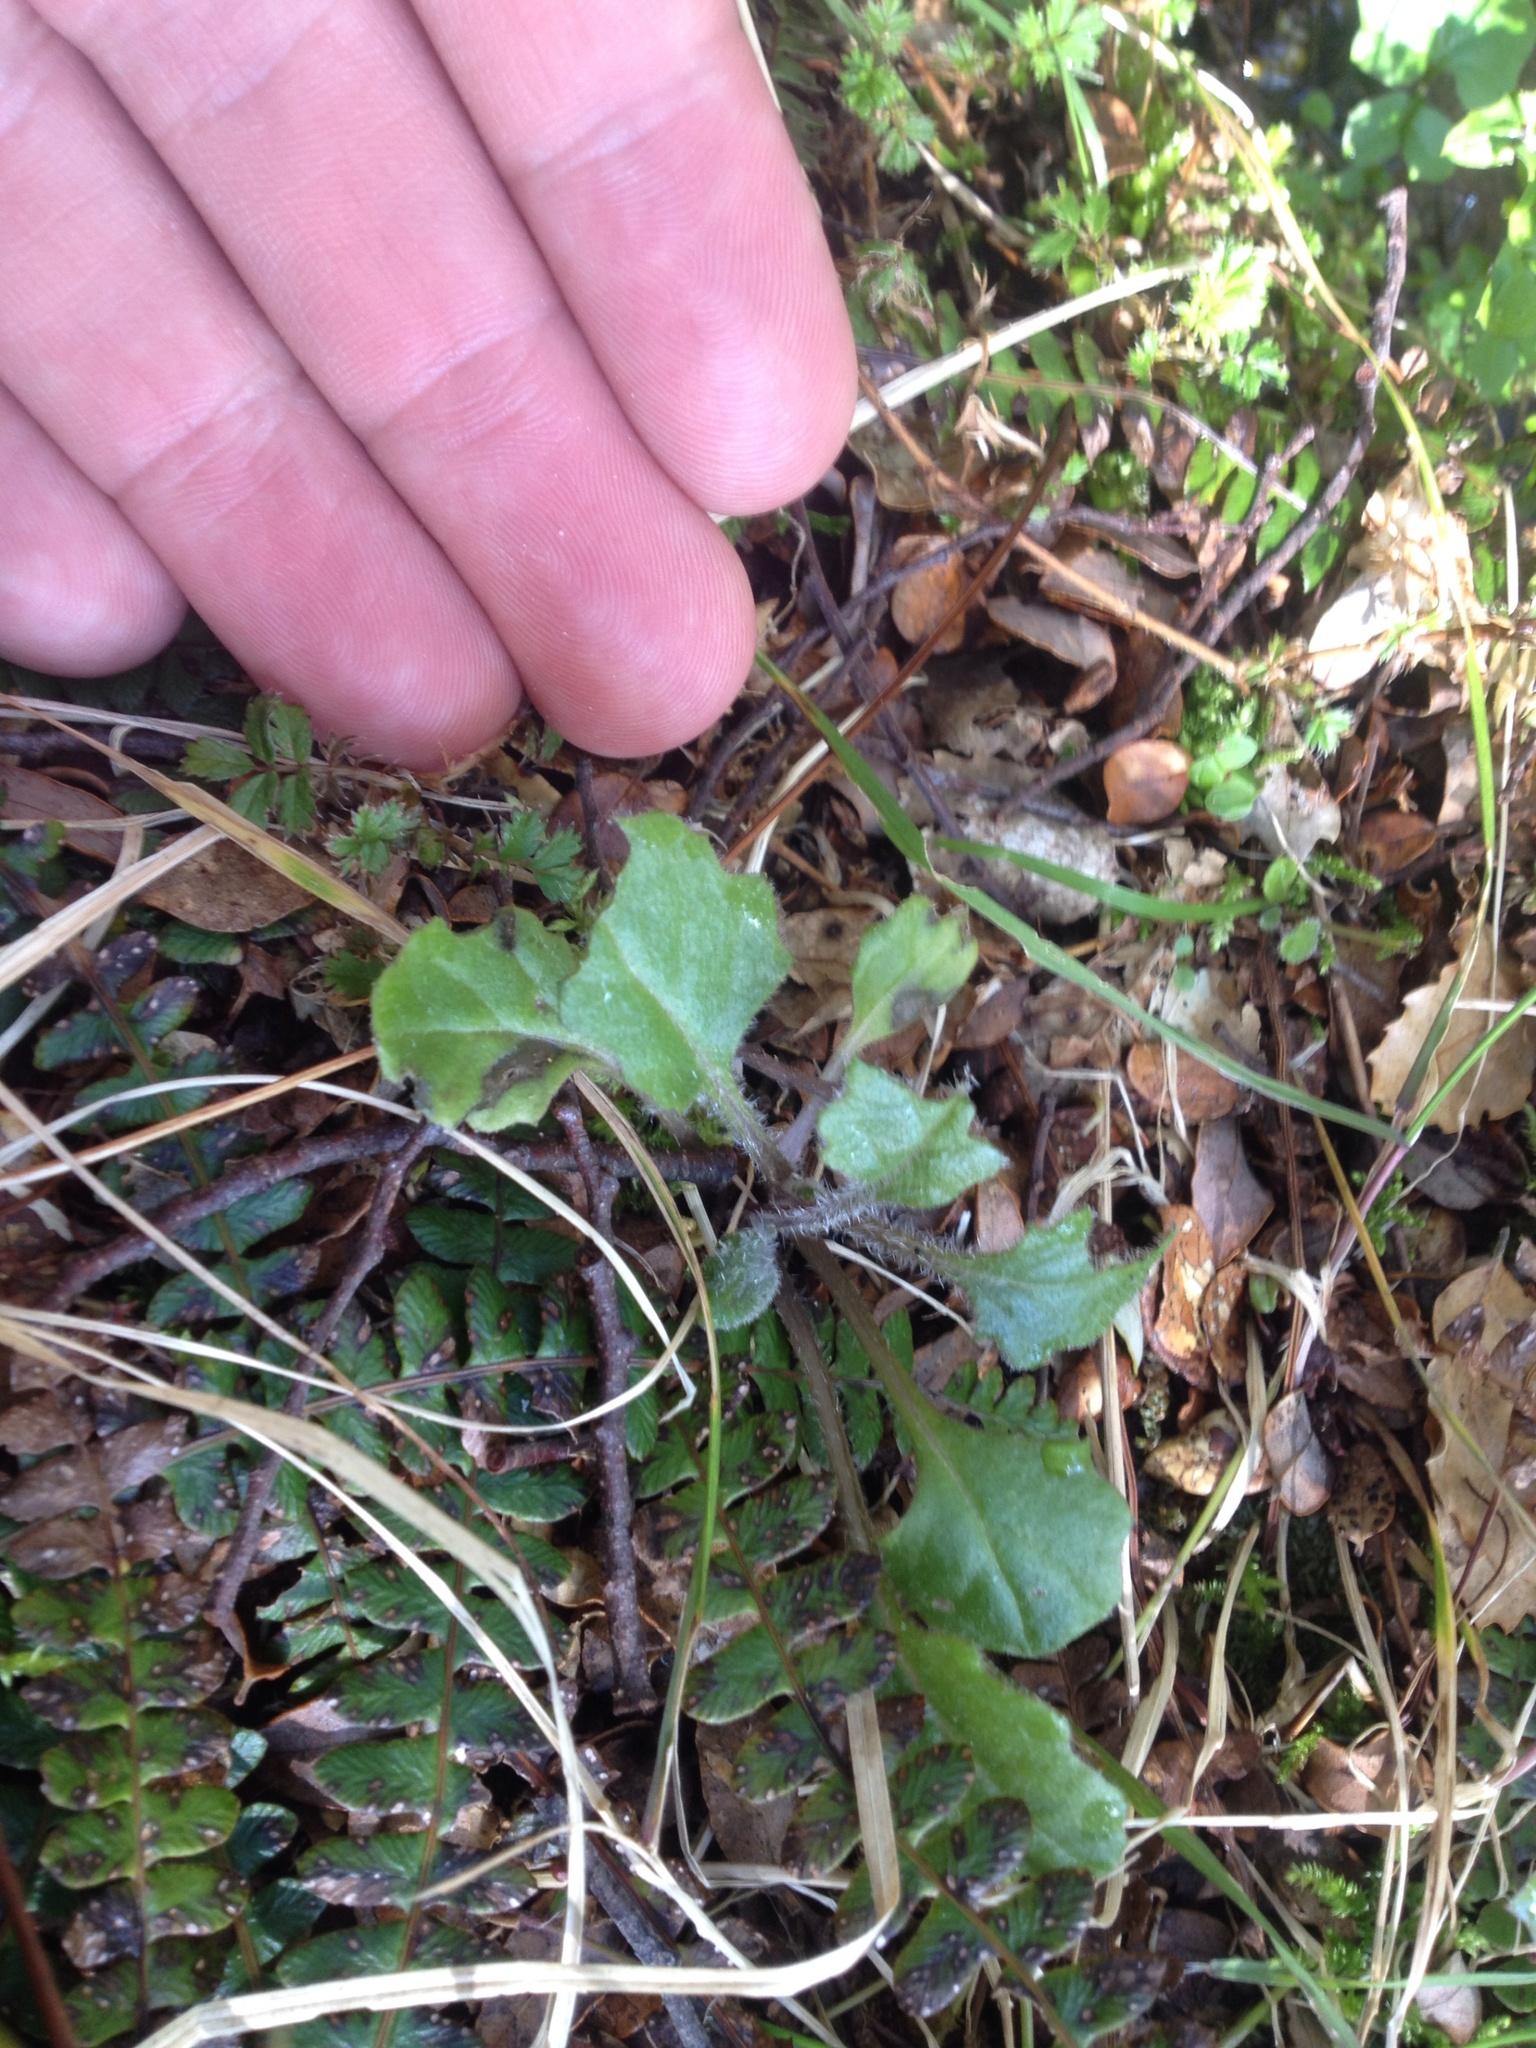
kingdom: Plantae
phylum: Tracheophyta
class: Magnoliopsida
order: Asterales
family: Asteraceae
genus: Senecio
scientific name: Senecio wairauensis
